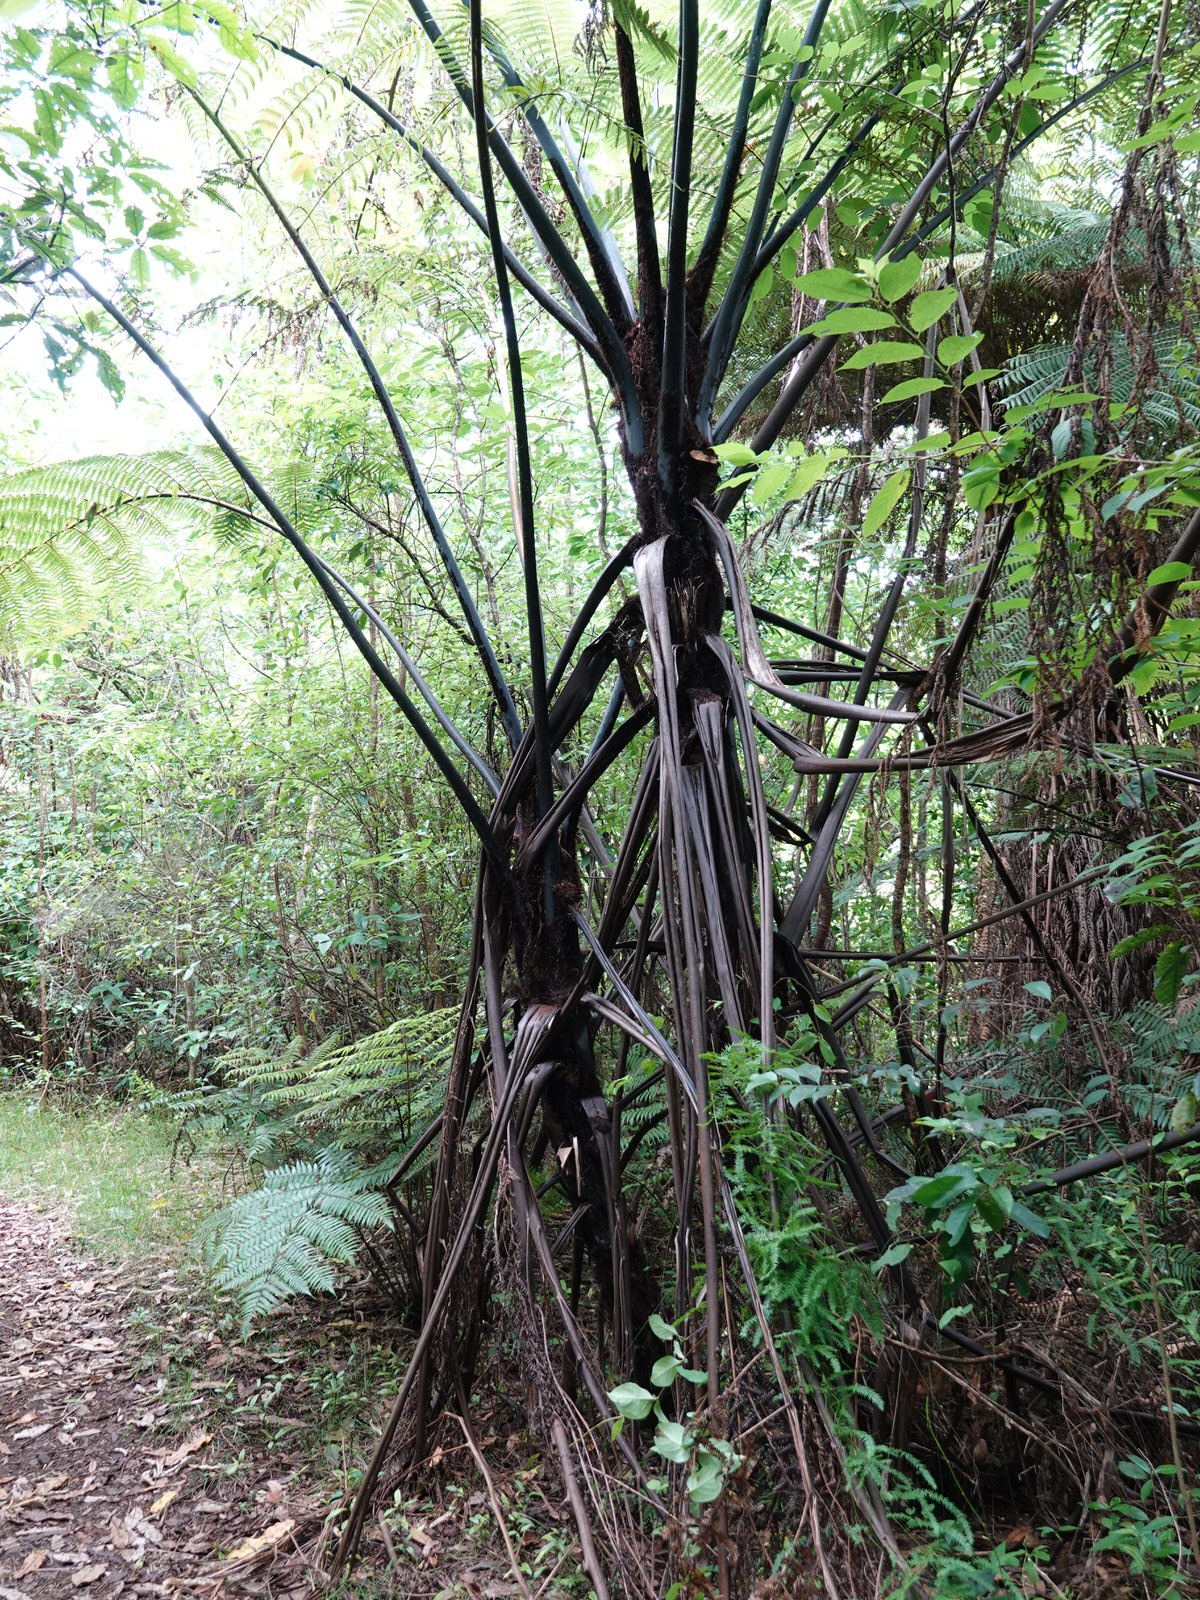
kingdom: Plantae
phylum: Tracheophyta
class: Polypodiopsida
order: Cyatheales
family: Cyatheaceae
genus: Sphaeropteris
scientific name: Sphaeropteris medullaris
